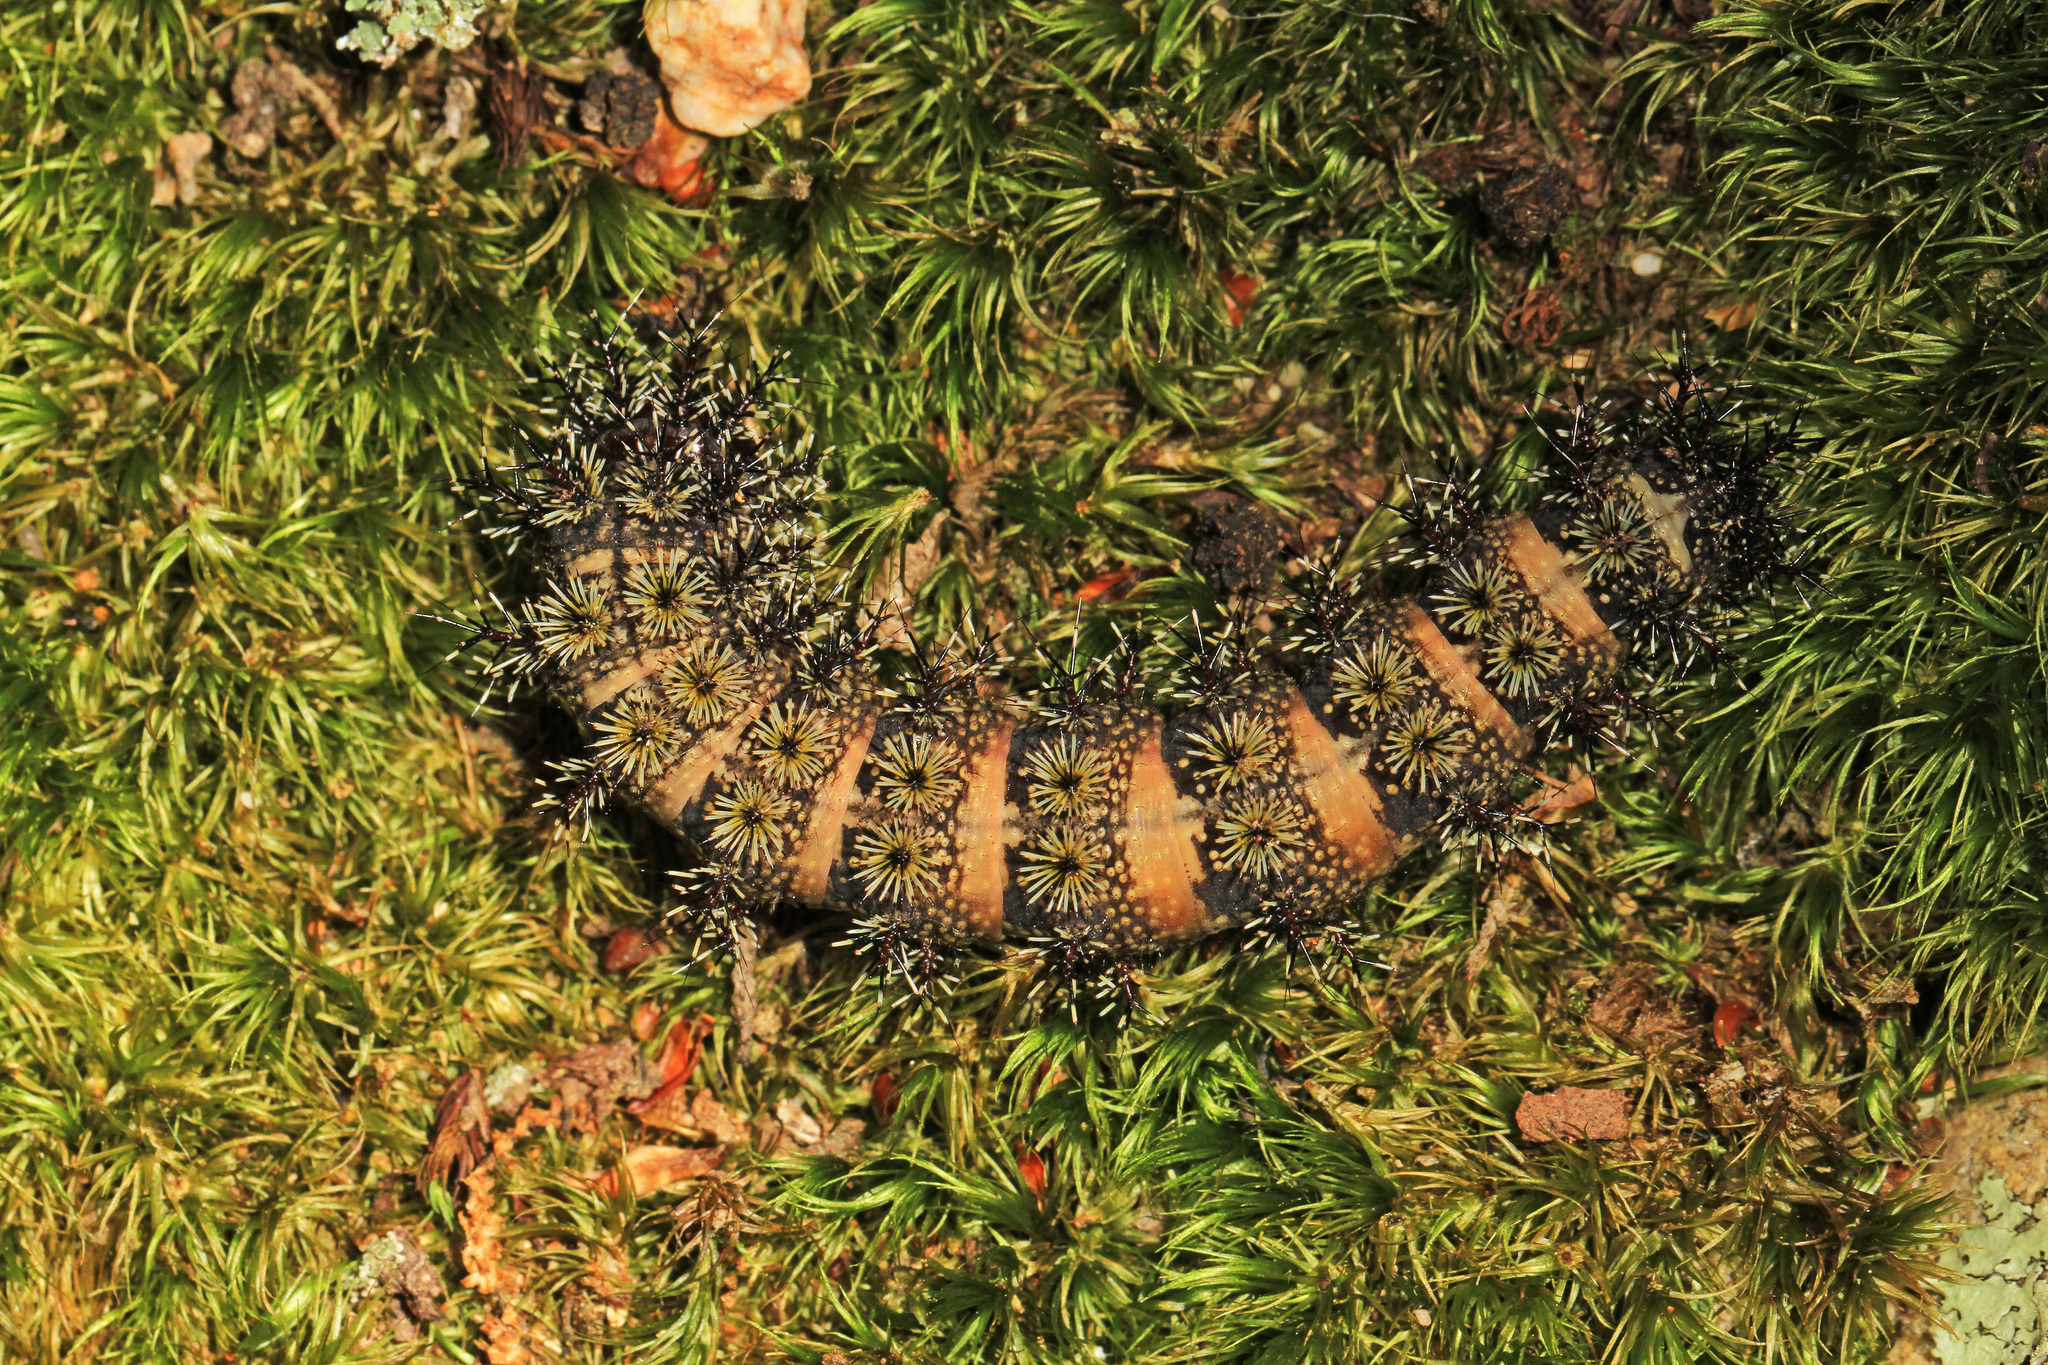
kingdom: Animalia
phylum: Arthropoda
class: Insecta
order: Lepidoptera
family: Saturniidae
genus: Hemileuca
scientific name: Hemileuca maia
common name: Eastern buckmoth
